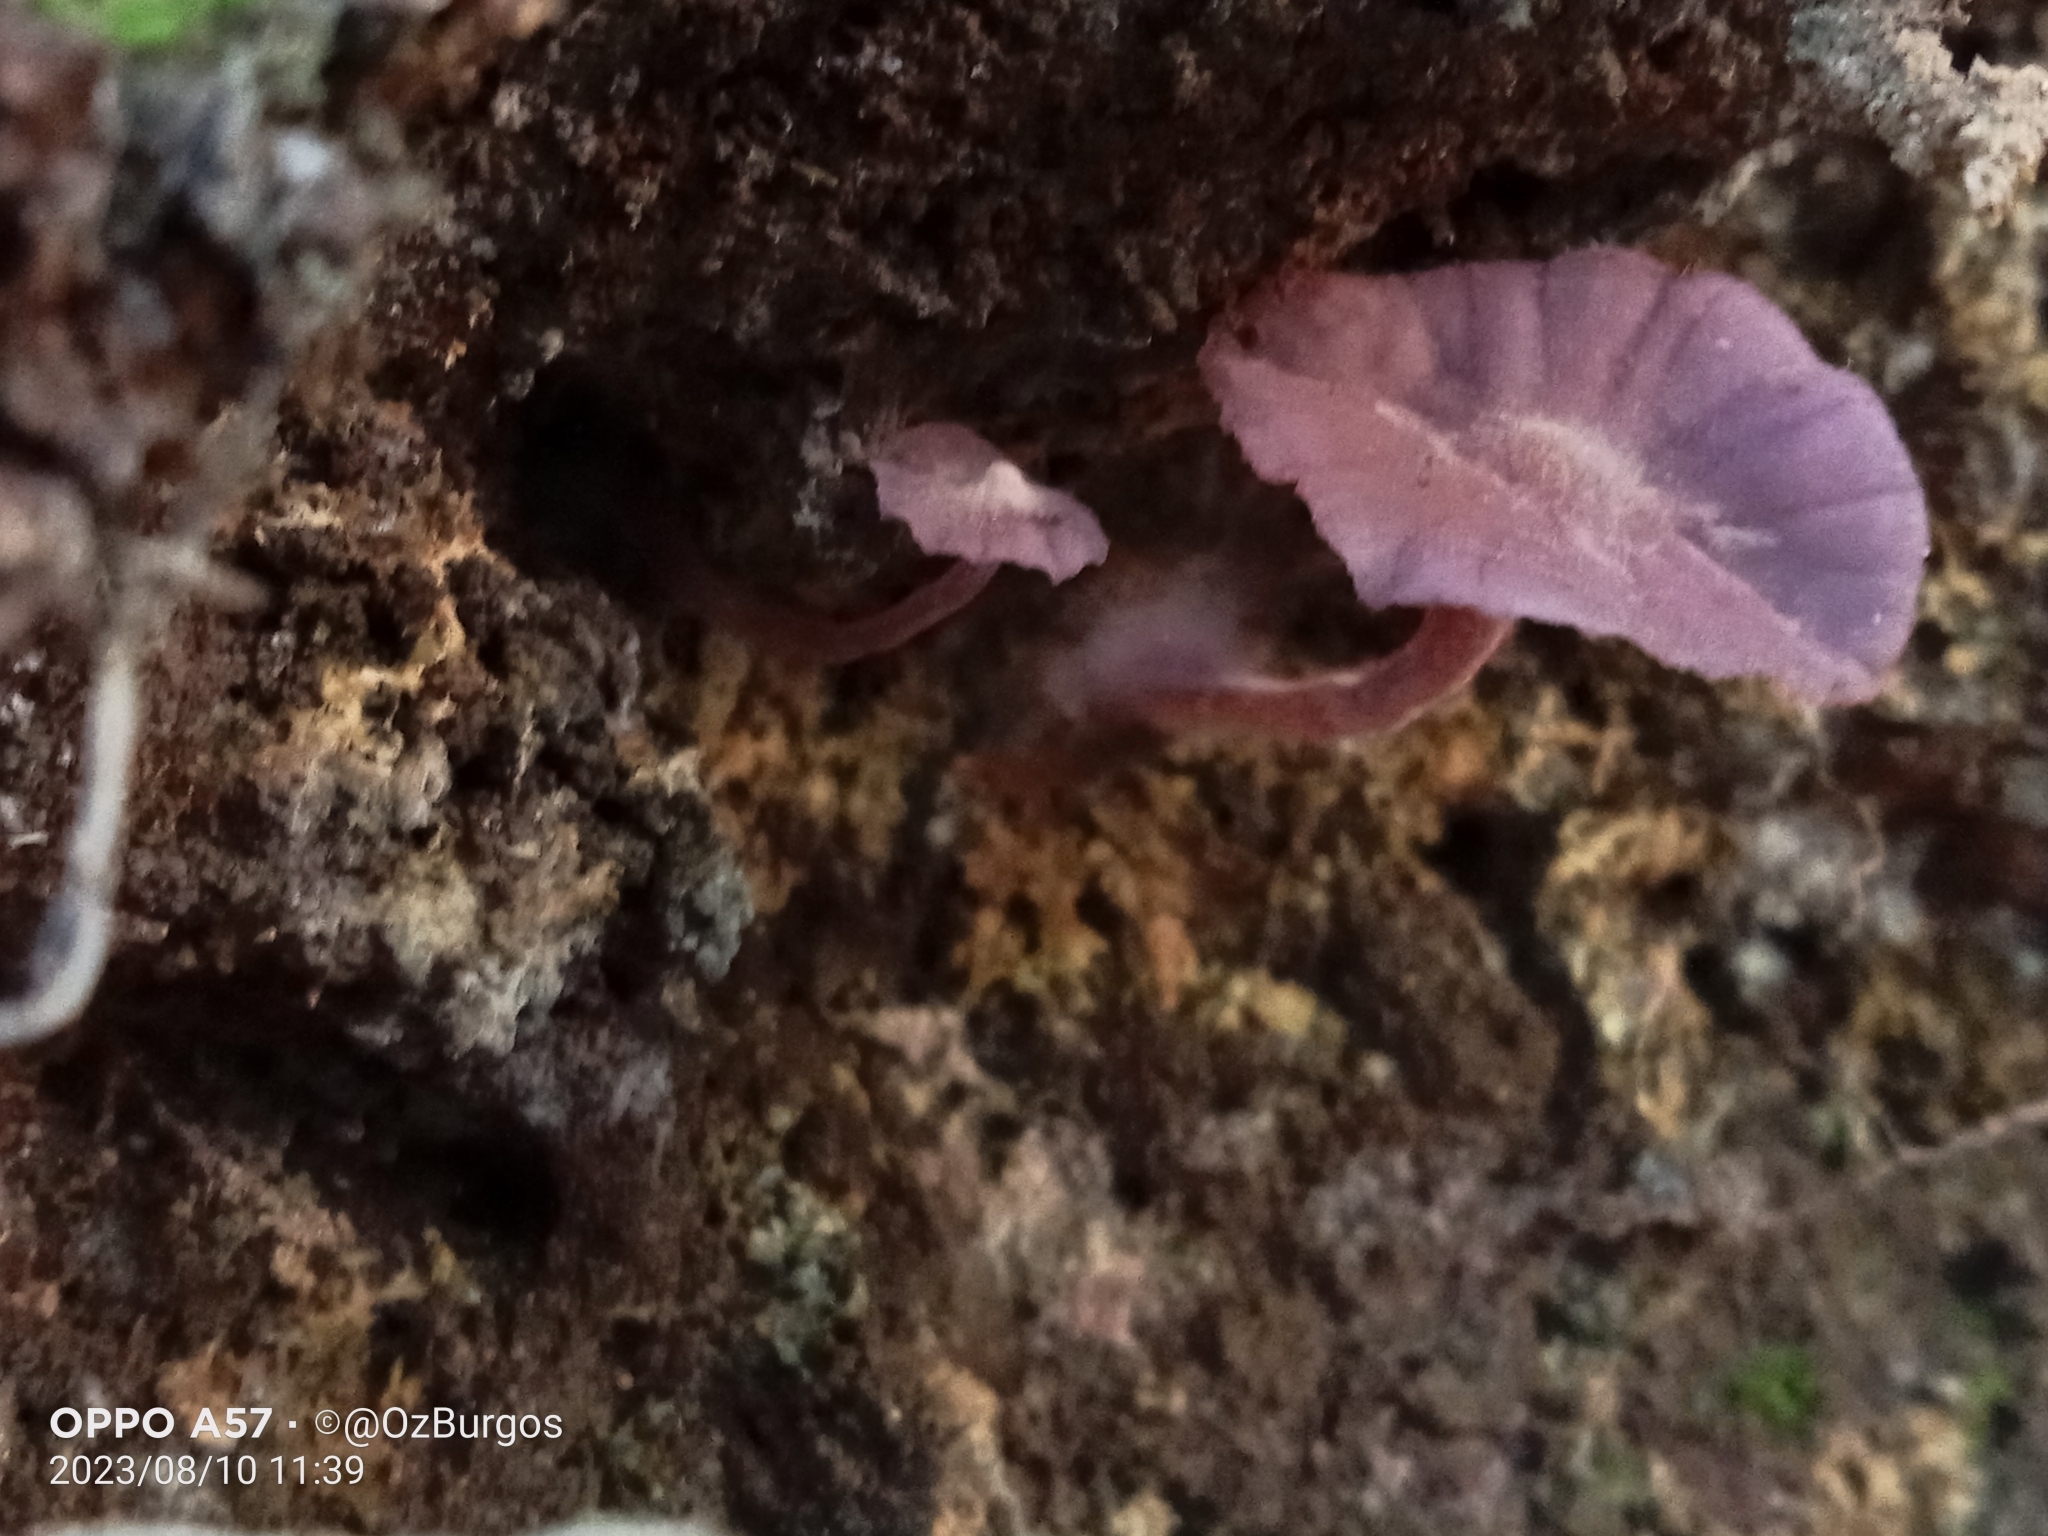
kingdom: Fungi
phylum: Basidiomycota
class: Agaricomycetes
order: Agaricales
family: Hydnangiaceae
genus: Laccaria
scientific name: Laccaria amethystina
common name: Amethyst deceiver
